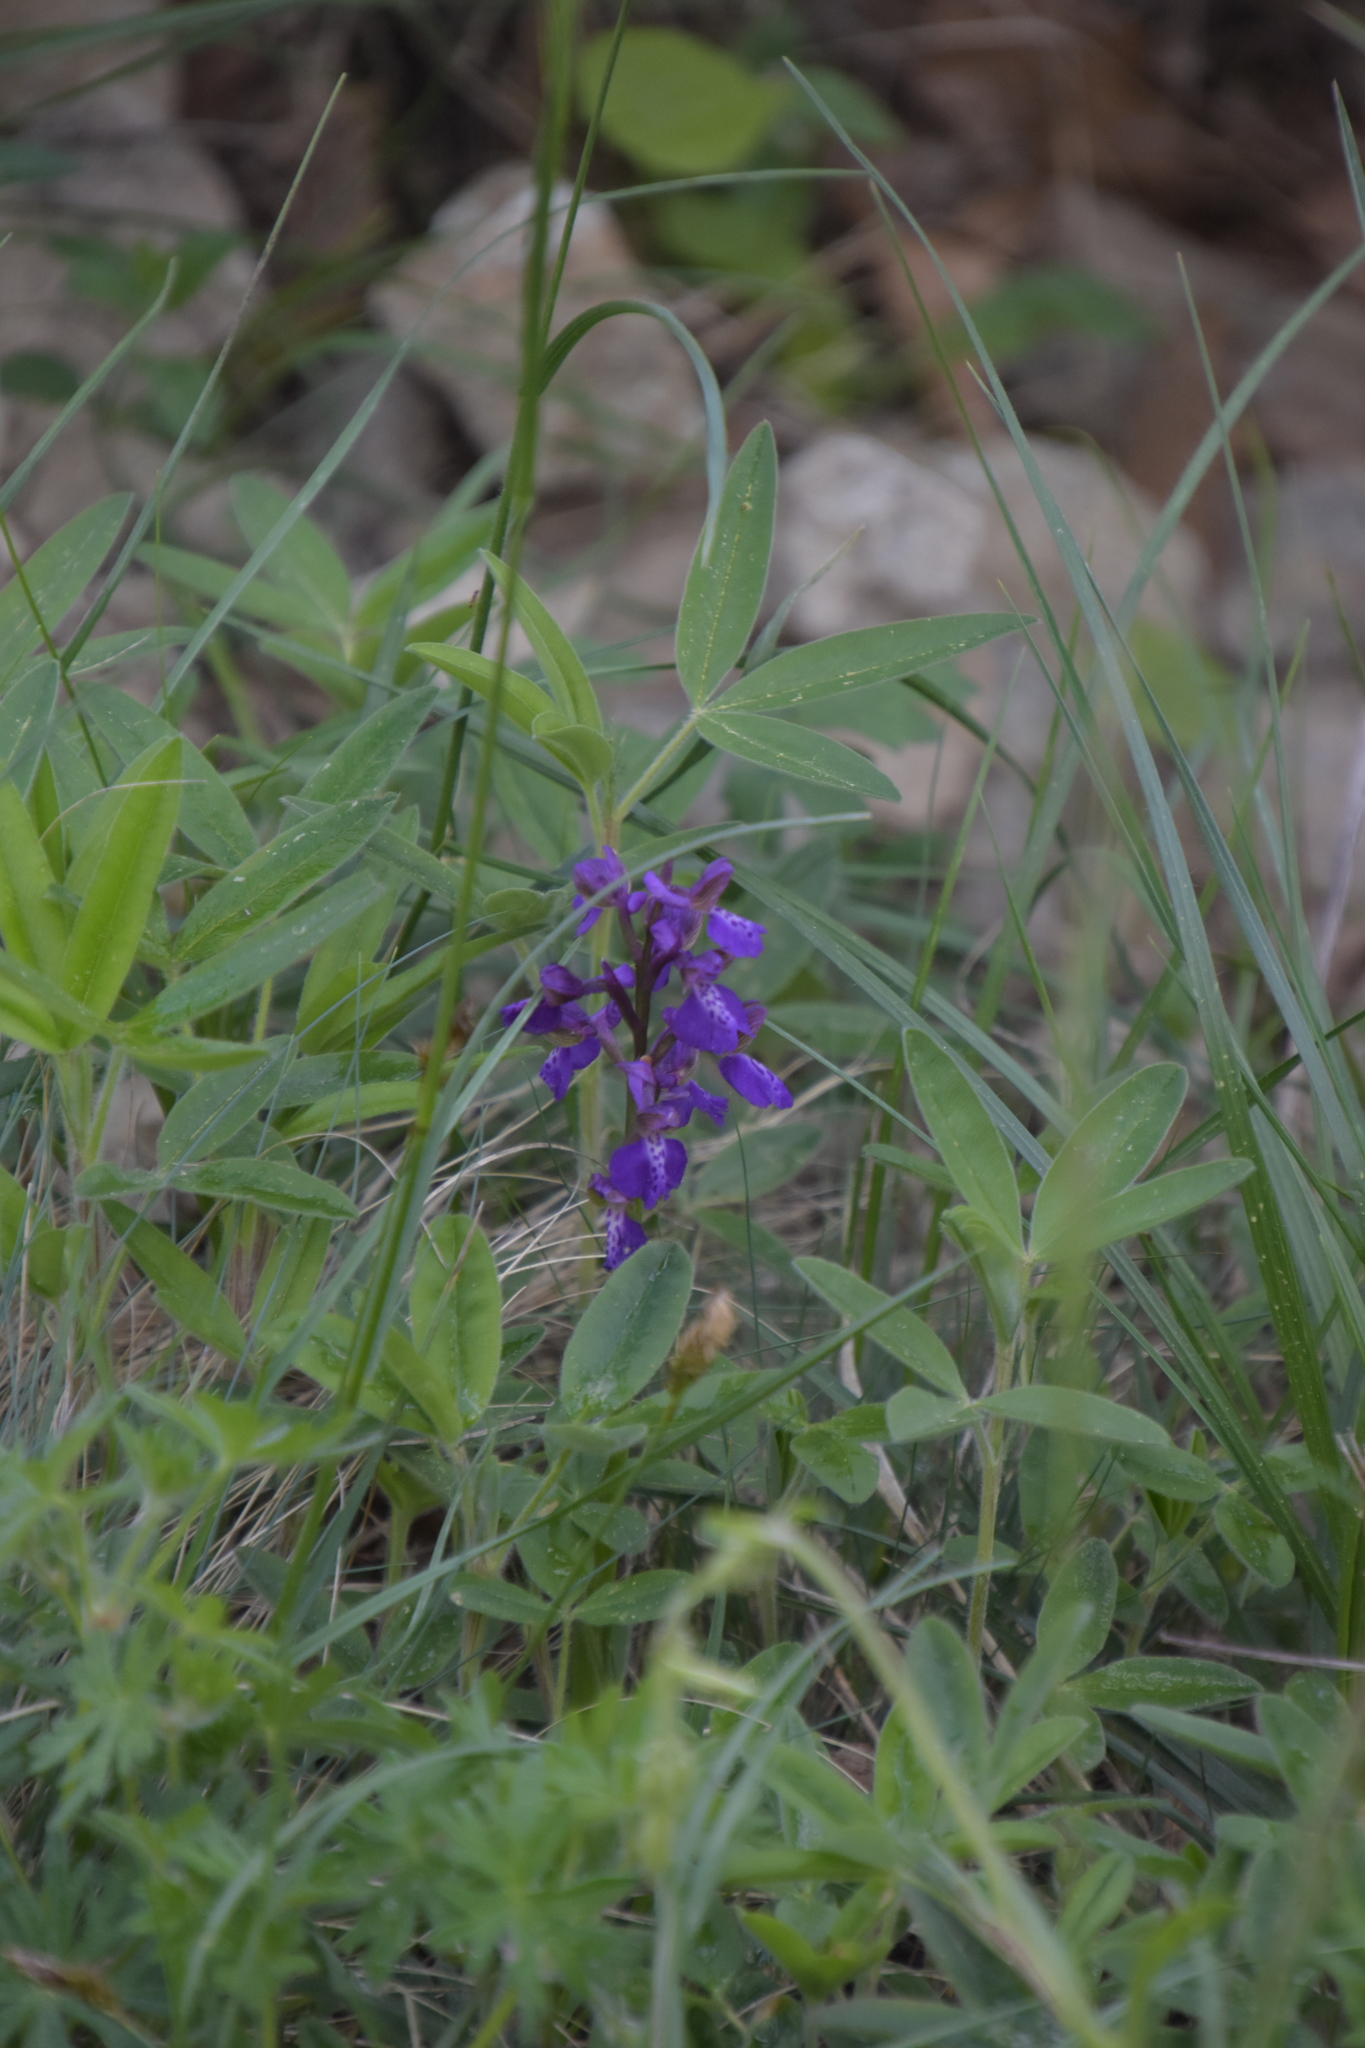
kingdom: Plantae
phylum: Tracheophyta
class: Liliopsida
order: Asparagales
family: Orchidaceae
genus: Anacamptis
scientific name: Anacamptis morio
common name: Green-winged orchid
